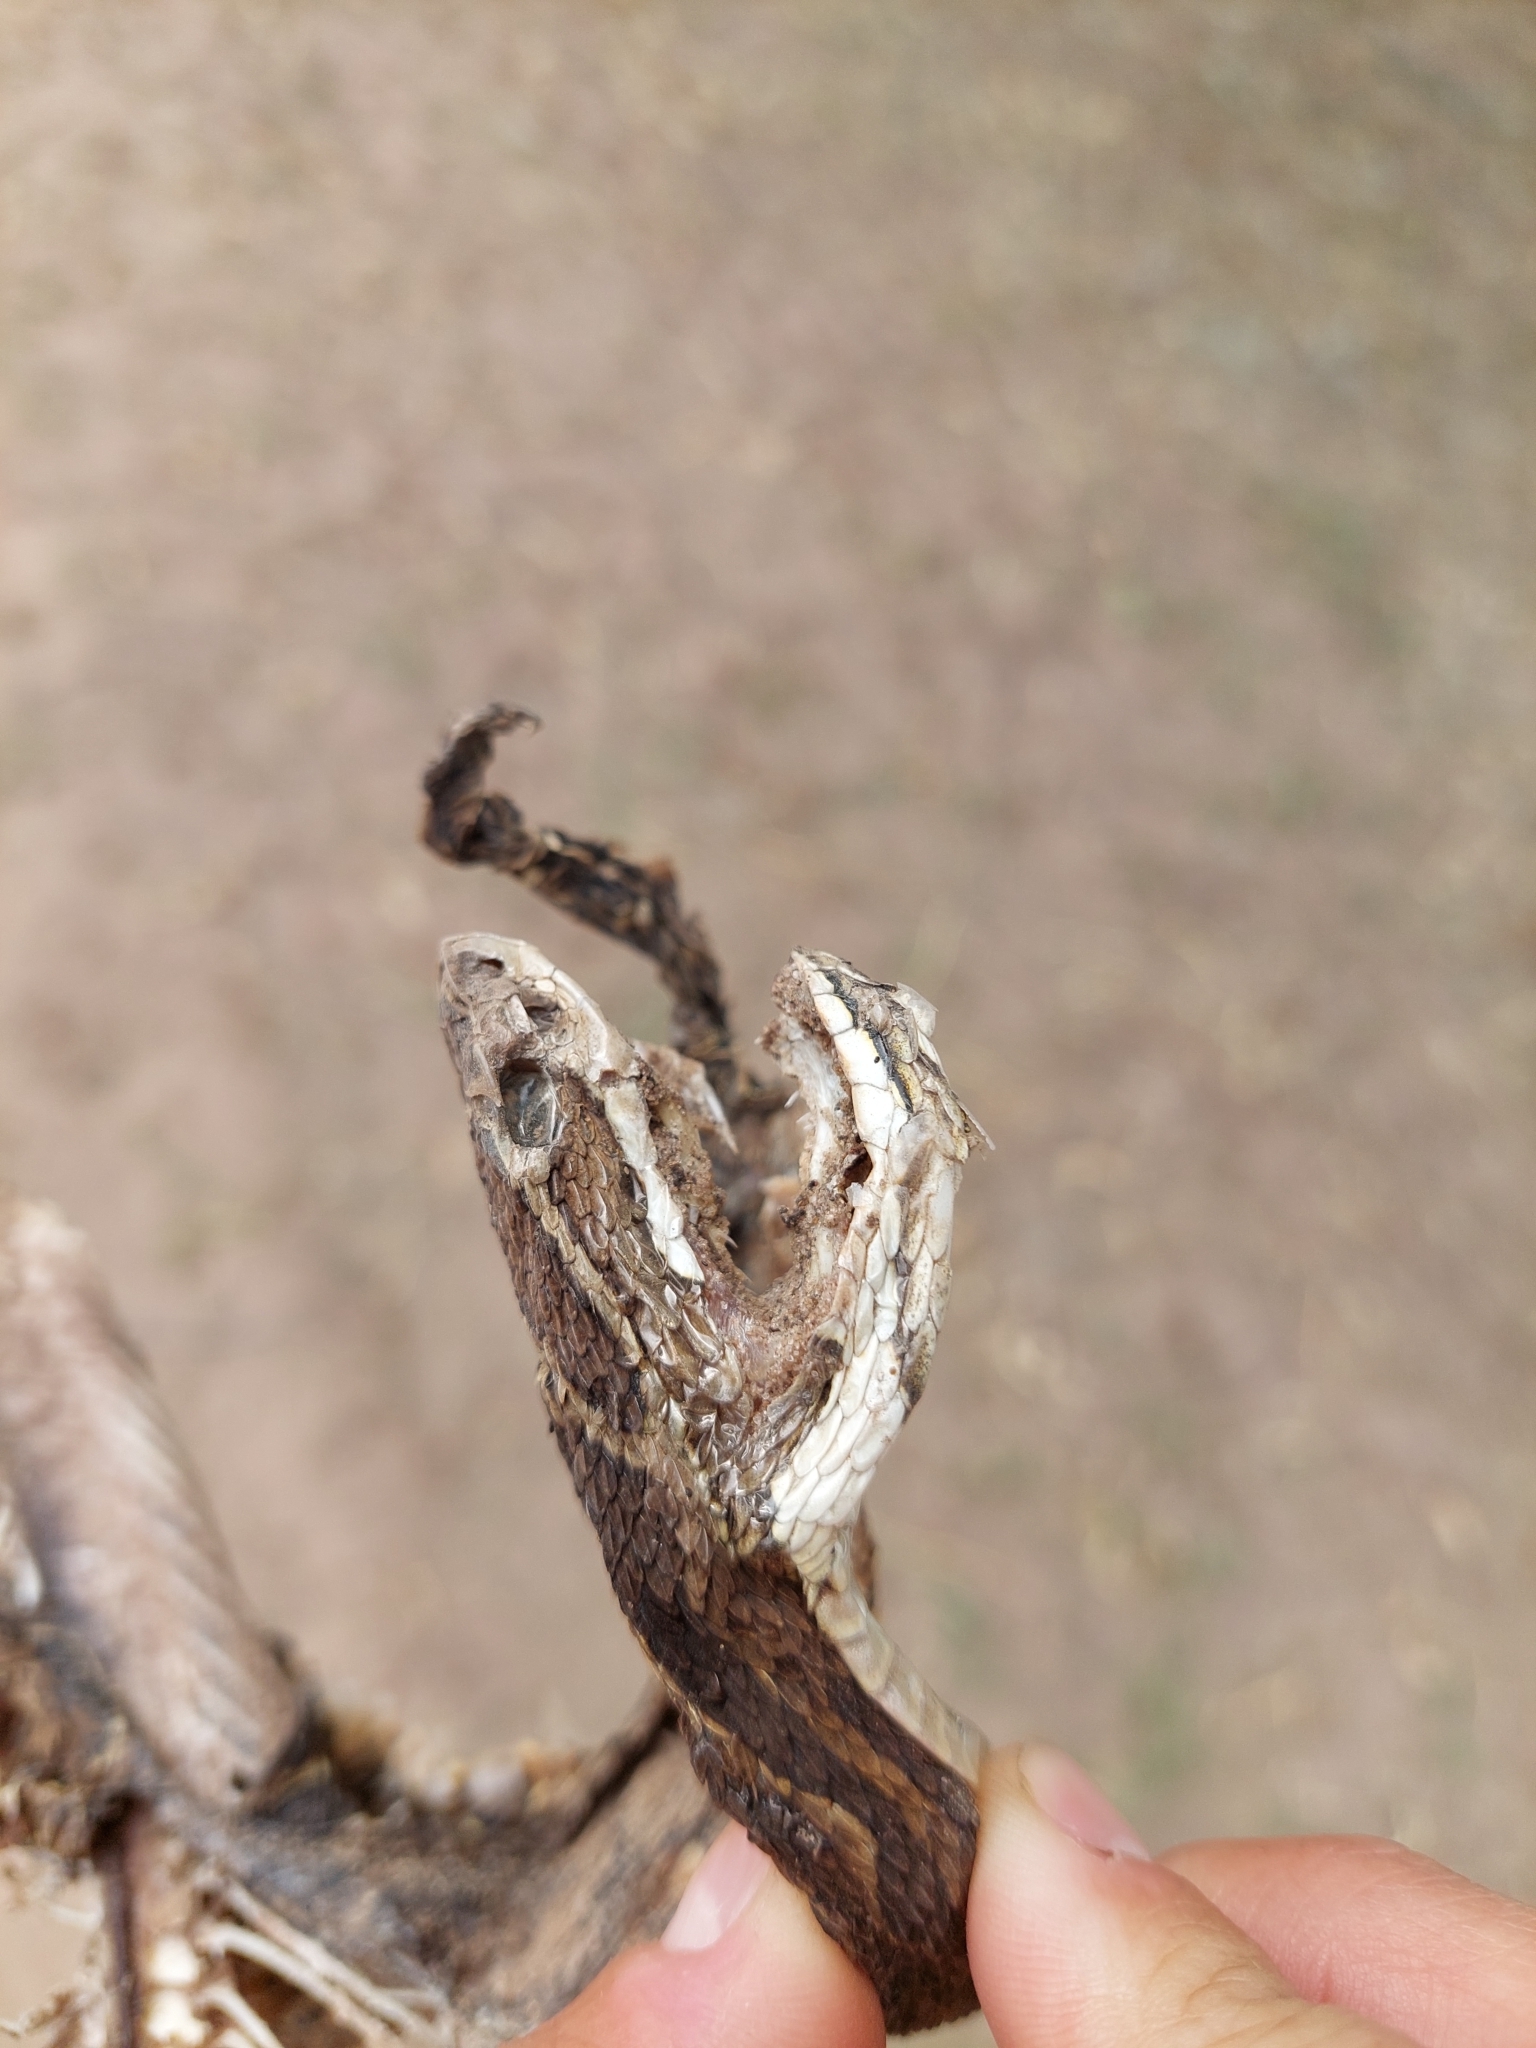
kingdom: Animalia
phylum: Chordata
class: Squamata
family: Viperidae
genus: Bothrops
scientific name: Bothrops alternatus
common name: Urutu
